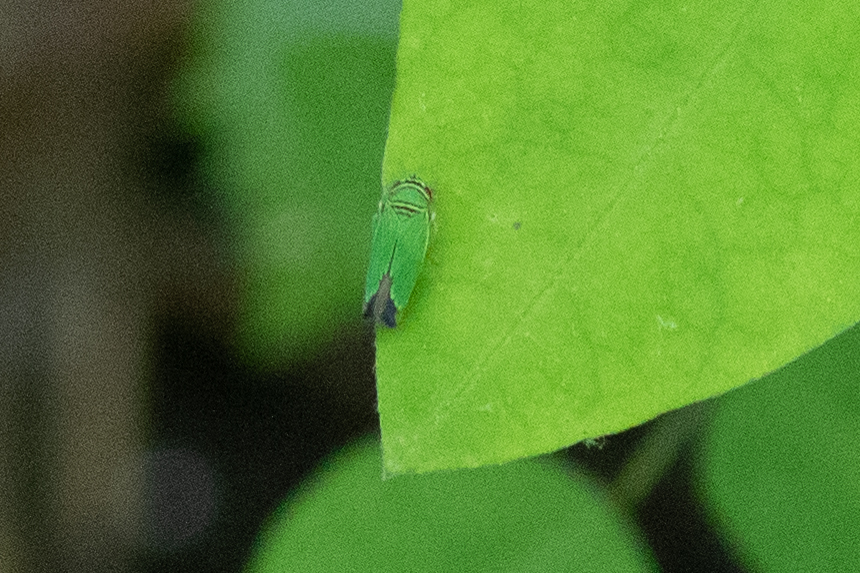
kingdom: Animalia
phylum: Arthropoda
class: Insecta
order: Hemiptera
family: Cicadellidae
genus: Tylozygus
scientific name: Tylozygus geometricus
